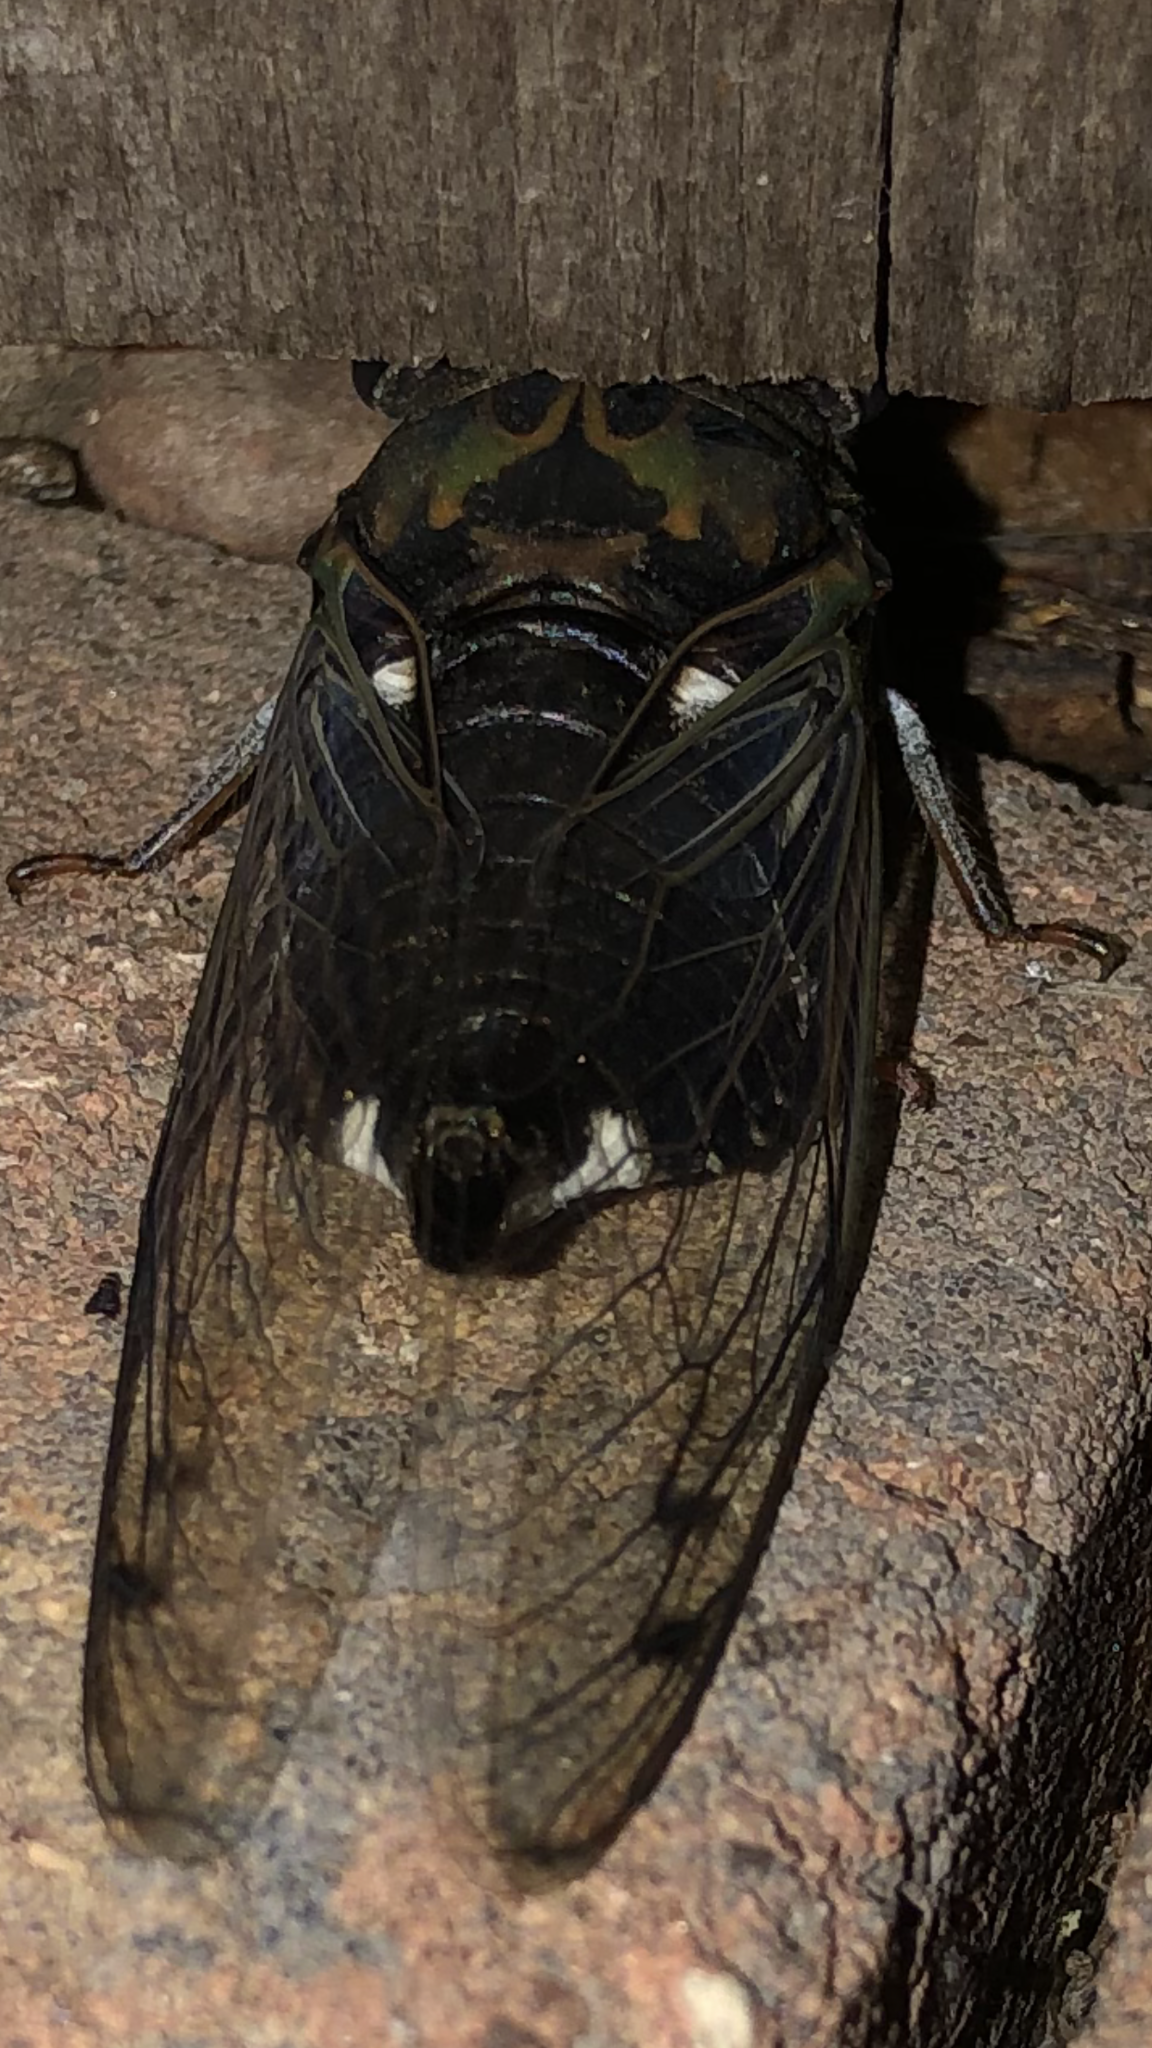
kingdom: Animalia
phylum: Arthropoda
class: Insecta
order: Hemiptera
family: Cicadidae
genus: Neotibicen
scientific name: Neotibicen pruinosus
